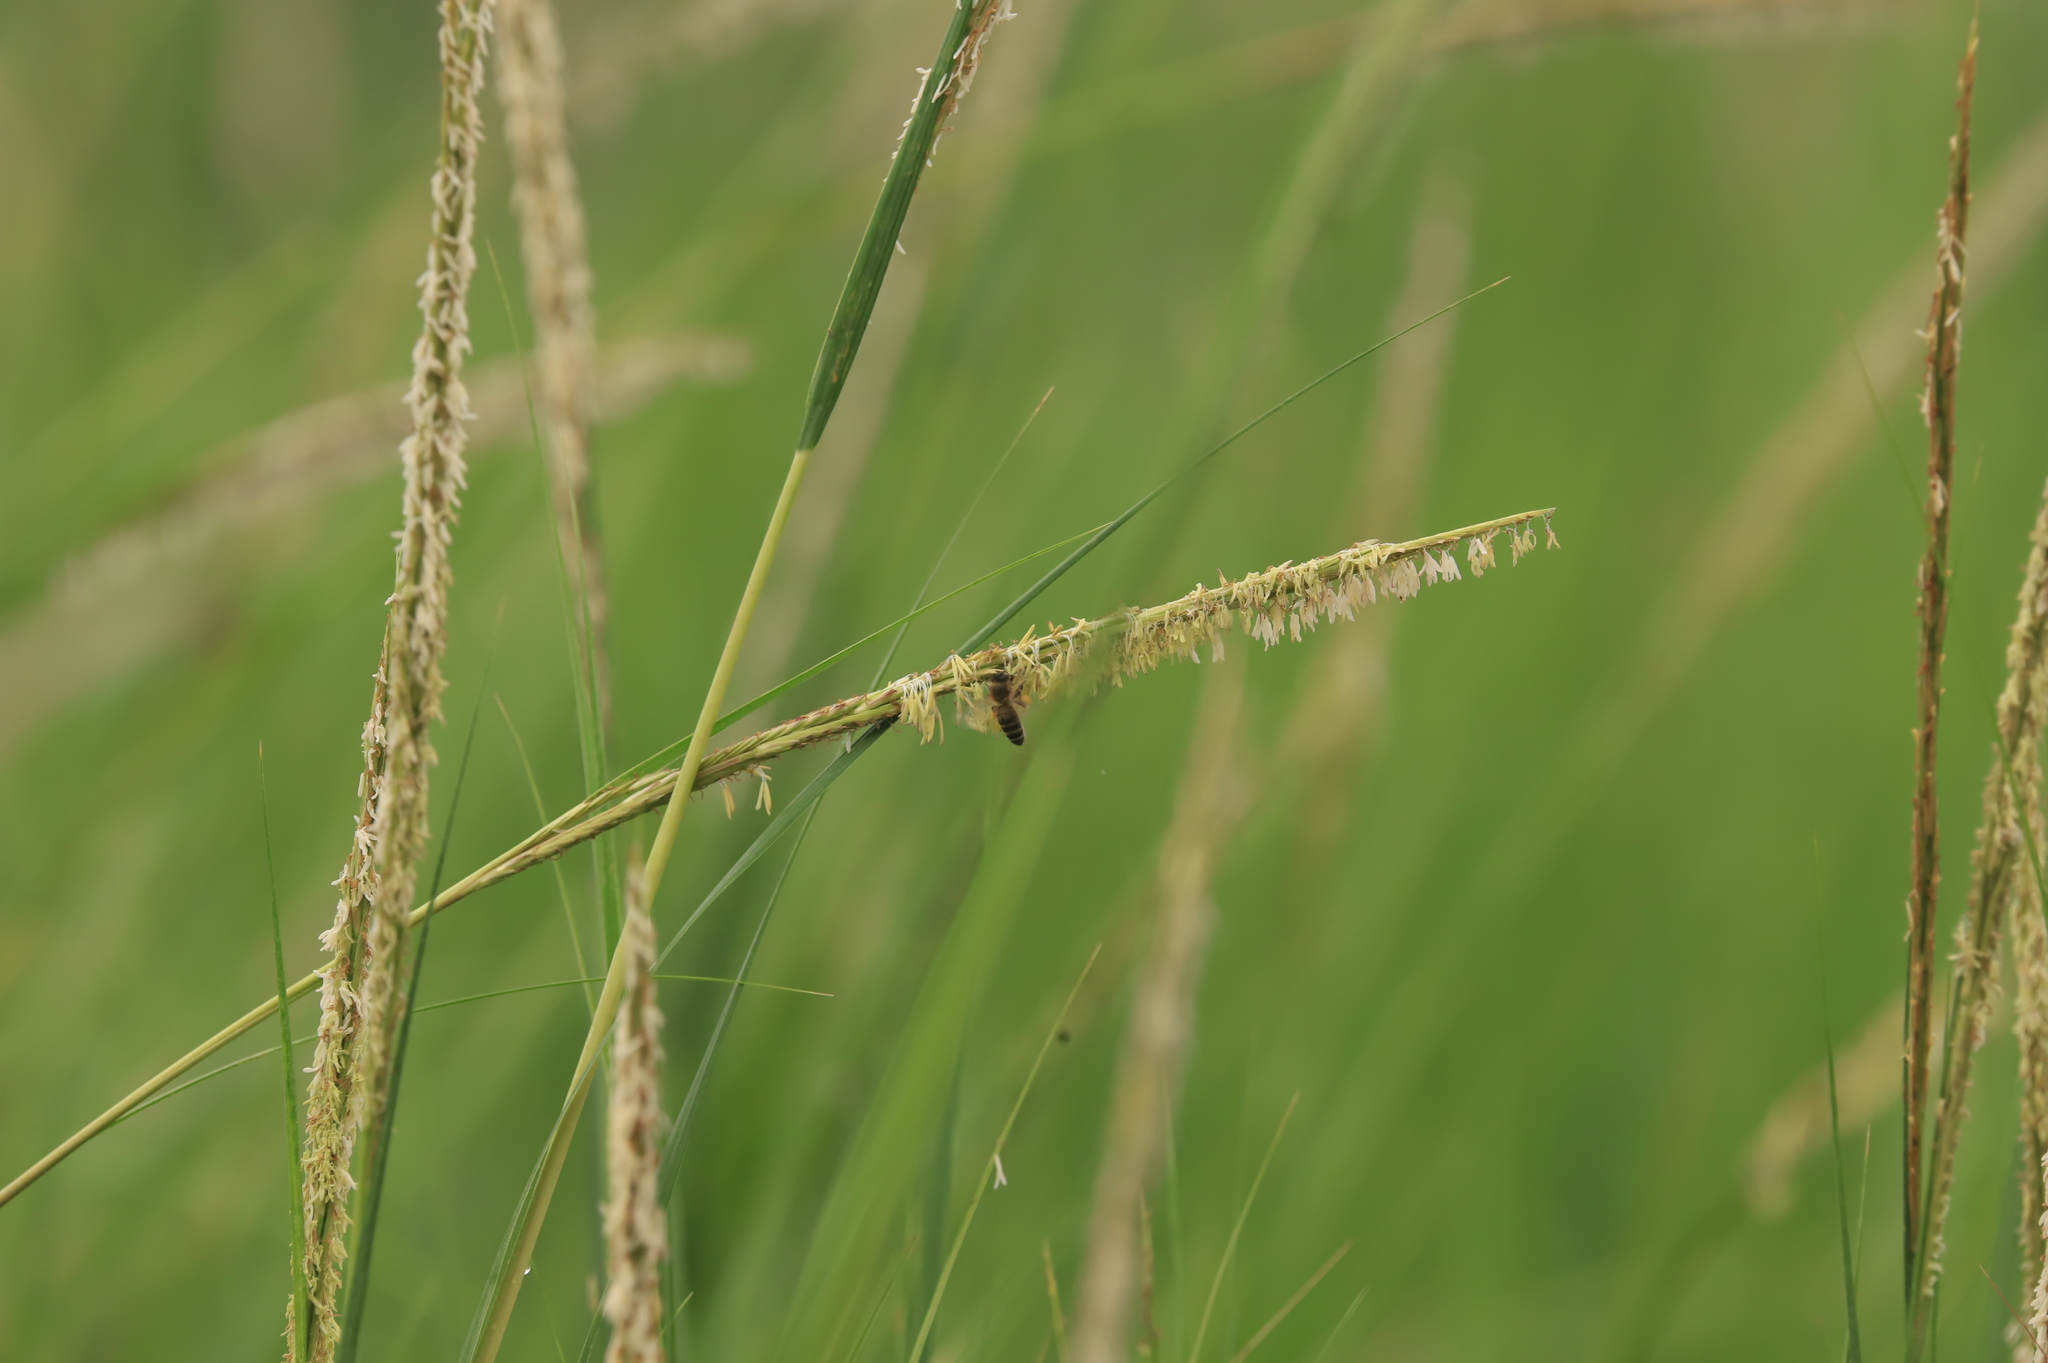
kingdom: Animalia
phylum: Arthropoda
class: Insecta
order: Hymenoptera
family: Apidae
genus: Apis
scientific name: Apis mellifera
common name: Honey bee
